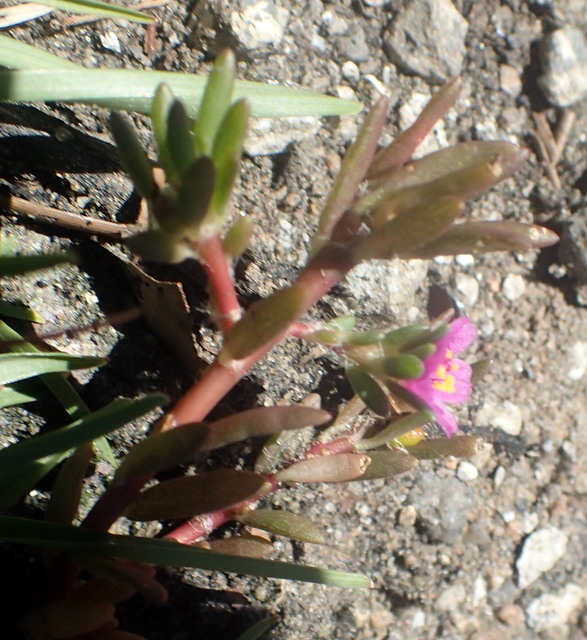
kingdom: Plantae
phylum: Tracheophyta
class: Magnoliopsida
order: Caryophyllales
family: Portulacaceae
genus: Portulaca
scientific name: Portulaca pilosa
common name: Kiss me quick
